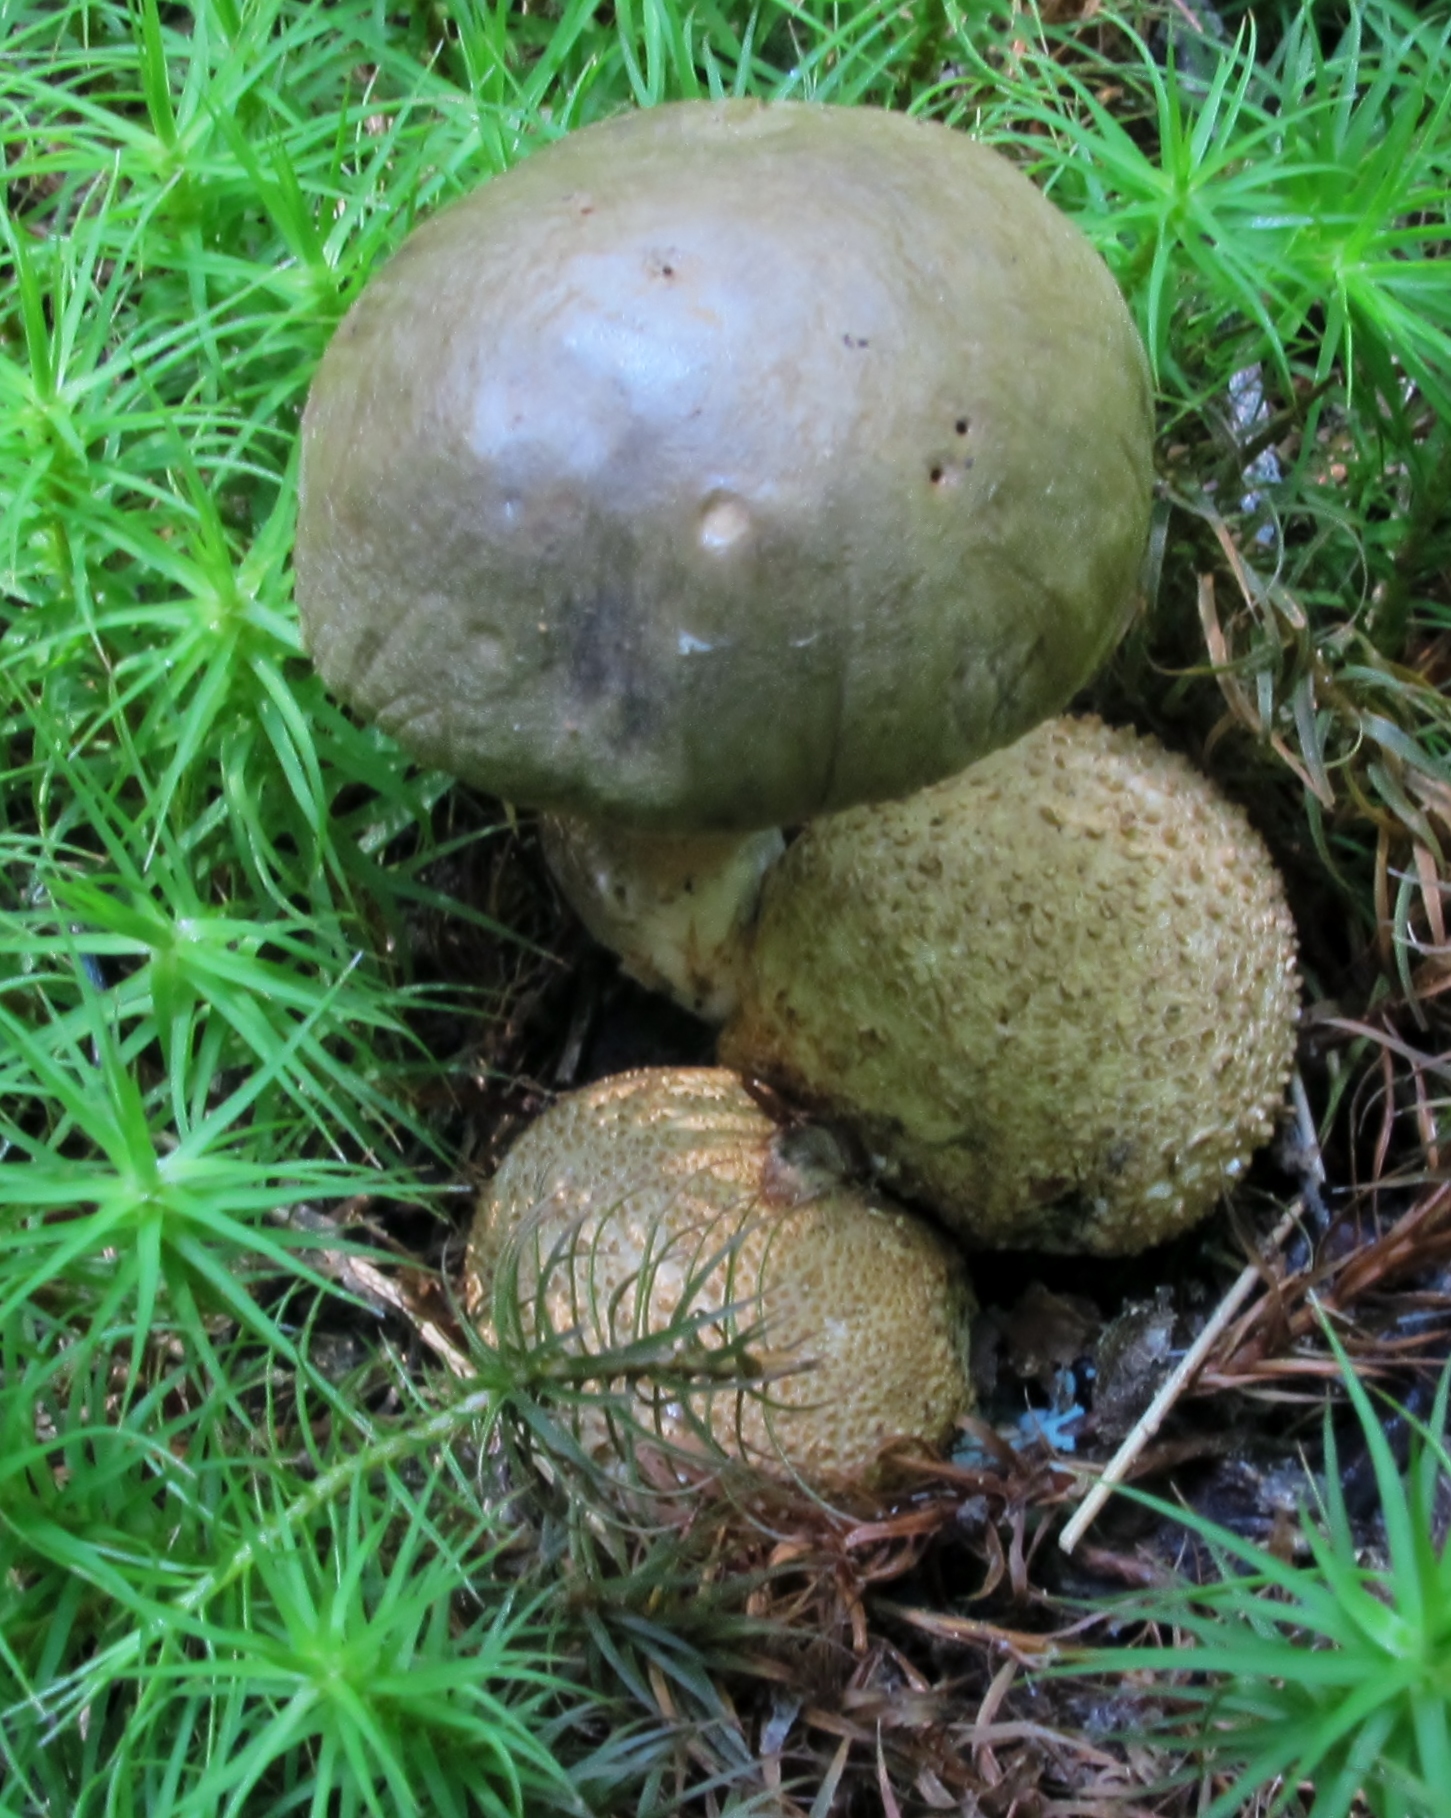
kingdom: Fungi
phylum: Basidiomycota
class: Agaricomycetes
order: Boletales
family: Boletaceae
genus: Pseudoboletus
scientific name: Pseudoboletus parasiticus
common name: Parasitic bolete
